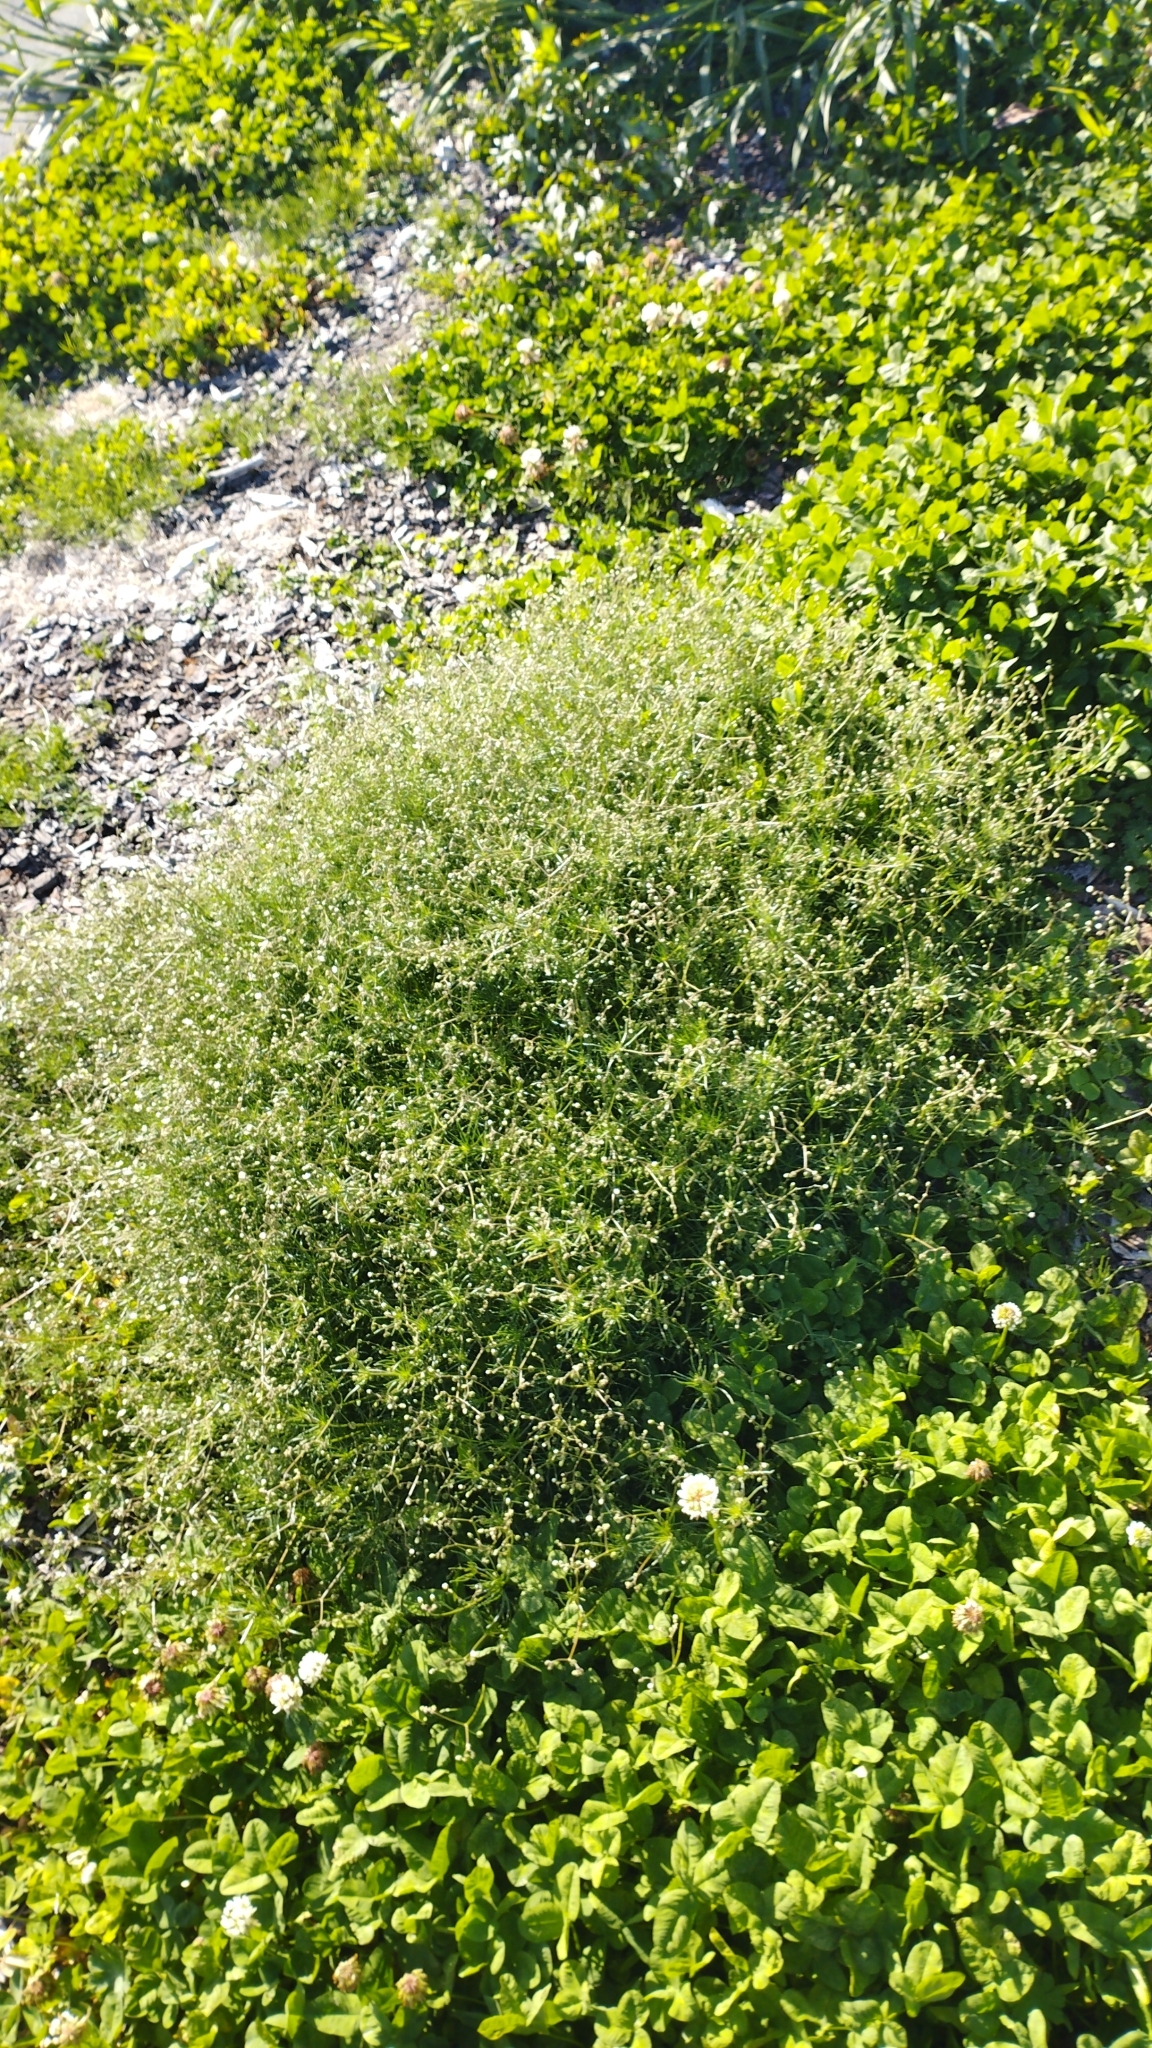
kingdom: Plantae
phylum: Tracheophyta
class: Magnoliopsida
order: Caryophyllales
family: Caryophyllaceae
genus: Spergula
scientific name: Spergula arvensis
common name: Corn spurrey
